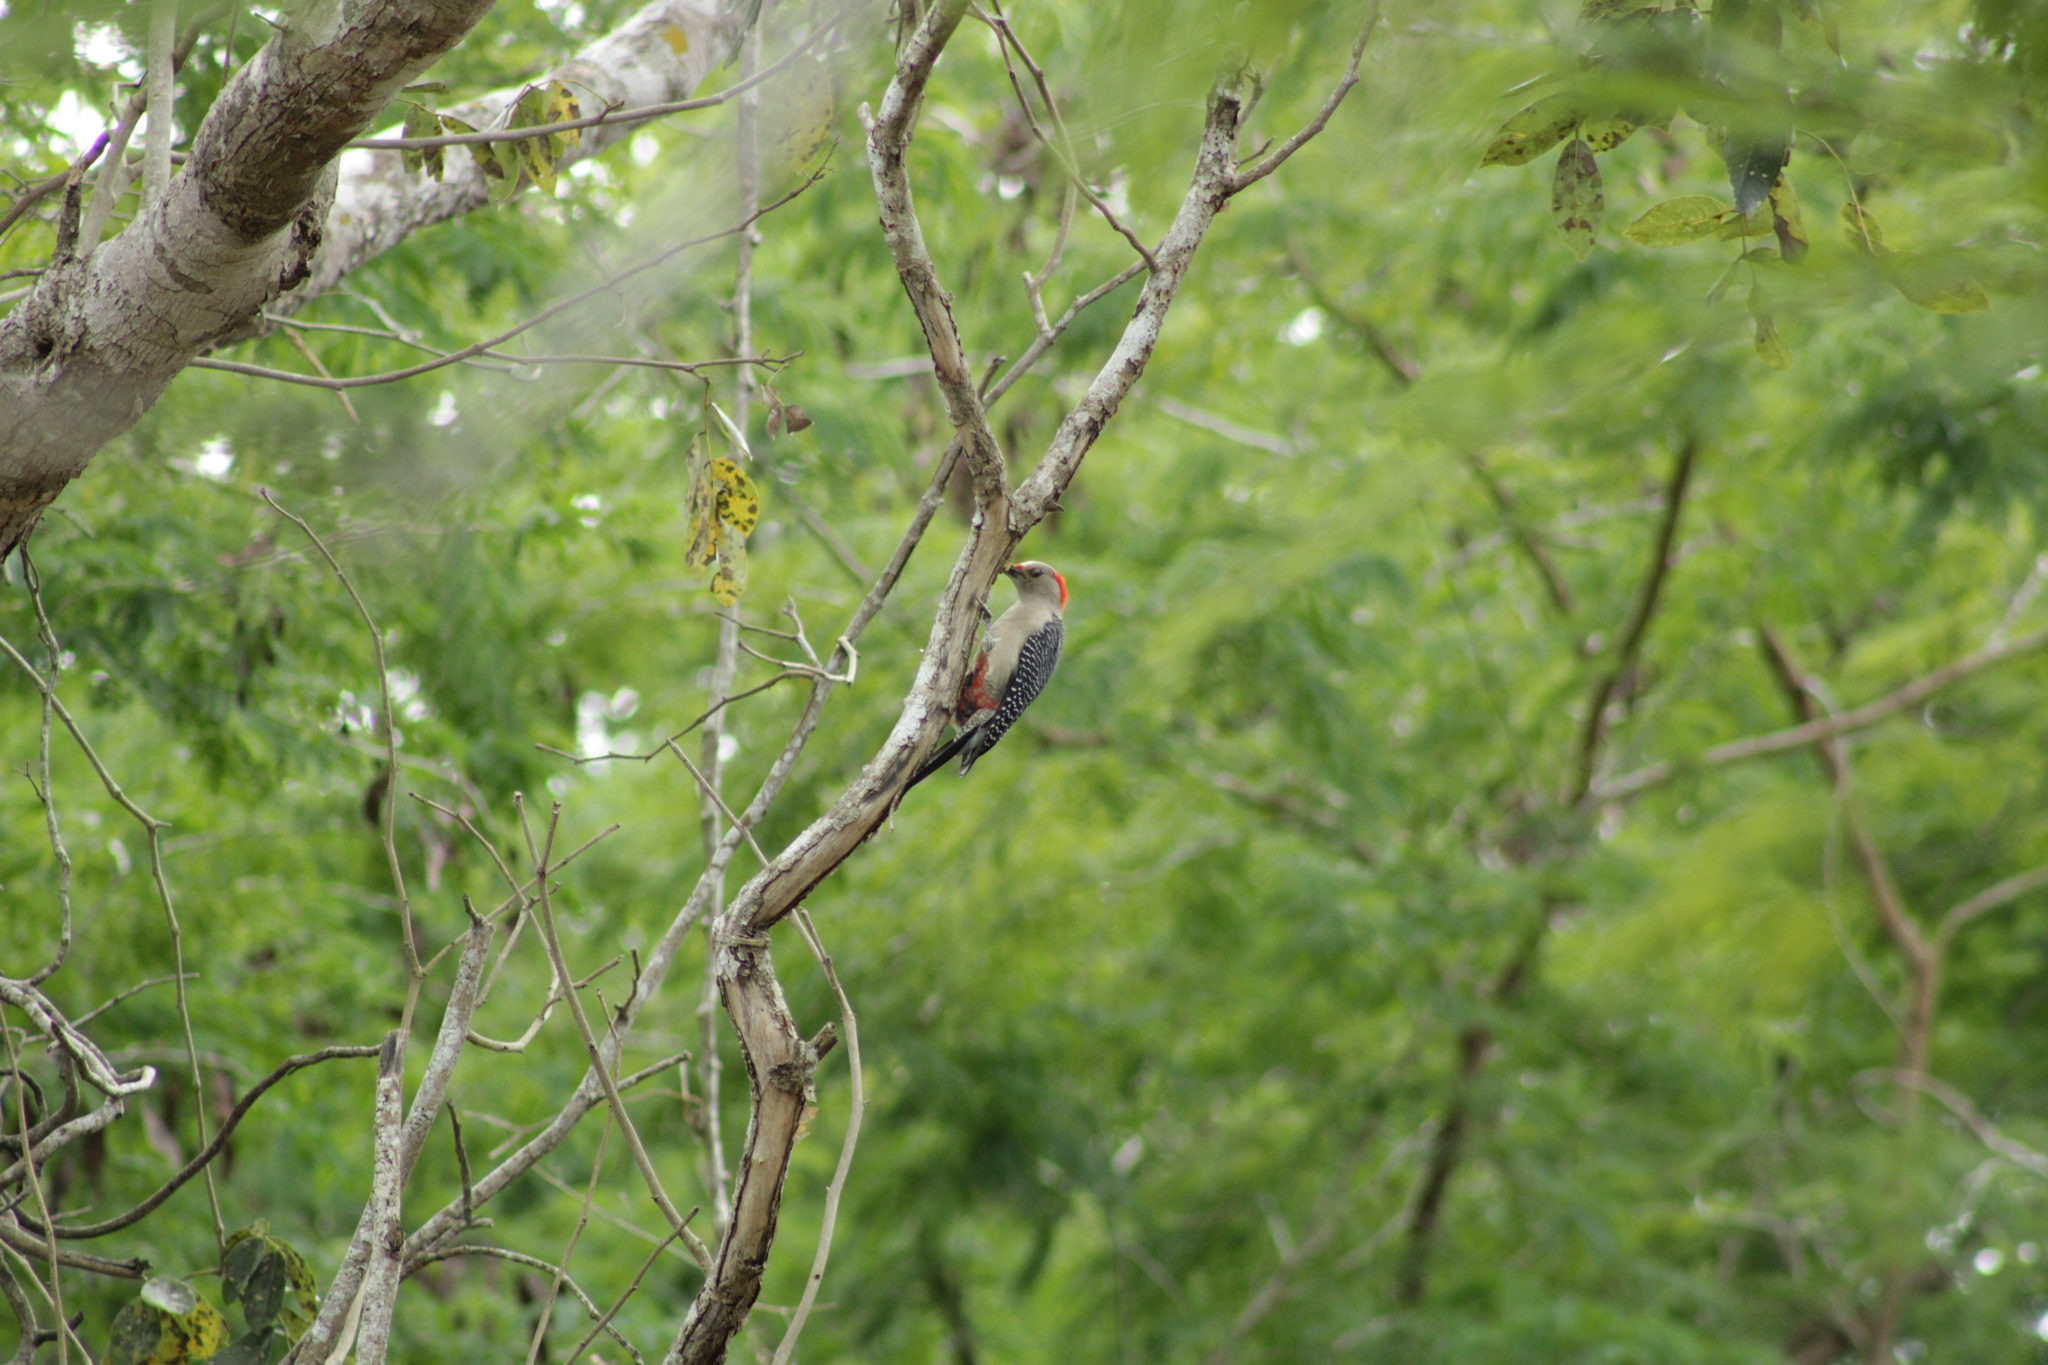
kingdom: Animalia
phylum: Chordata
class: Aves
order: Piciformes
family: Picidae
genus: Melanerpes
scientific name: Melanerpes santacruzi
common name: Velasquez's woodpecker
